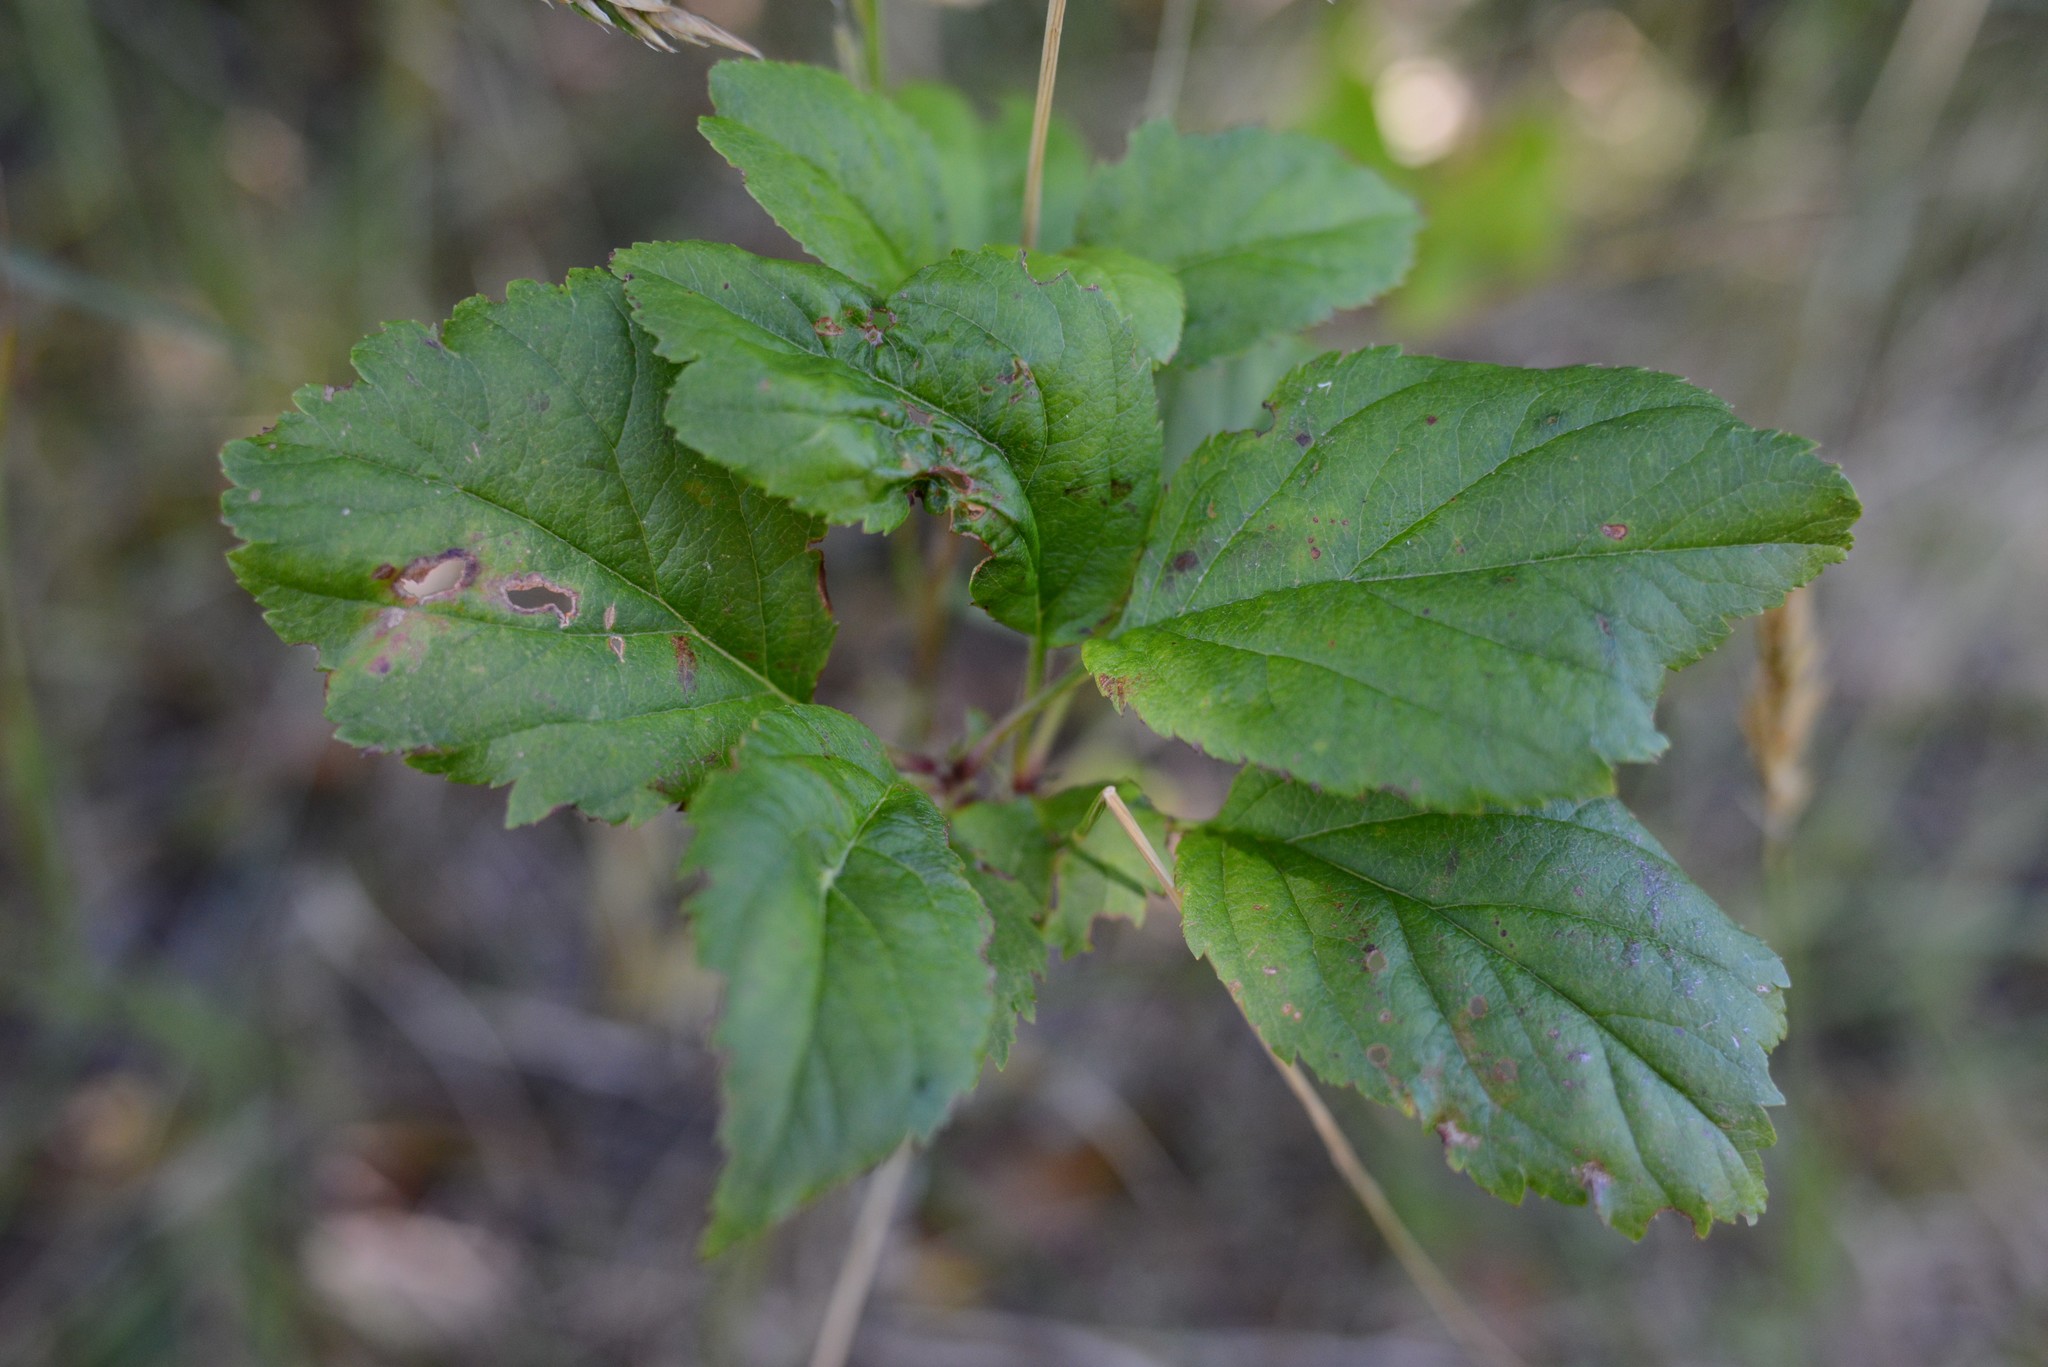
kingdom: Plantae
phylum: Tracheophyta
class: Magnoliopsida
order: Rosales
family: Rosaceae
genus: Malus
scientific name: Malus domestica
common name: Apple
